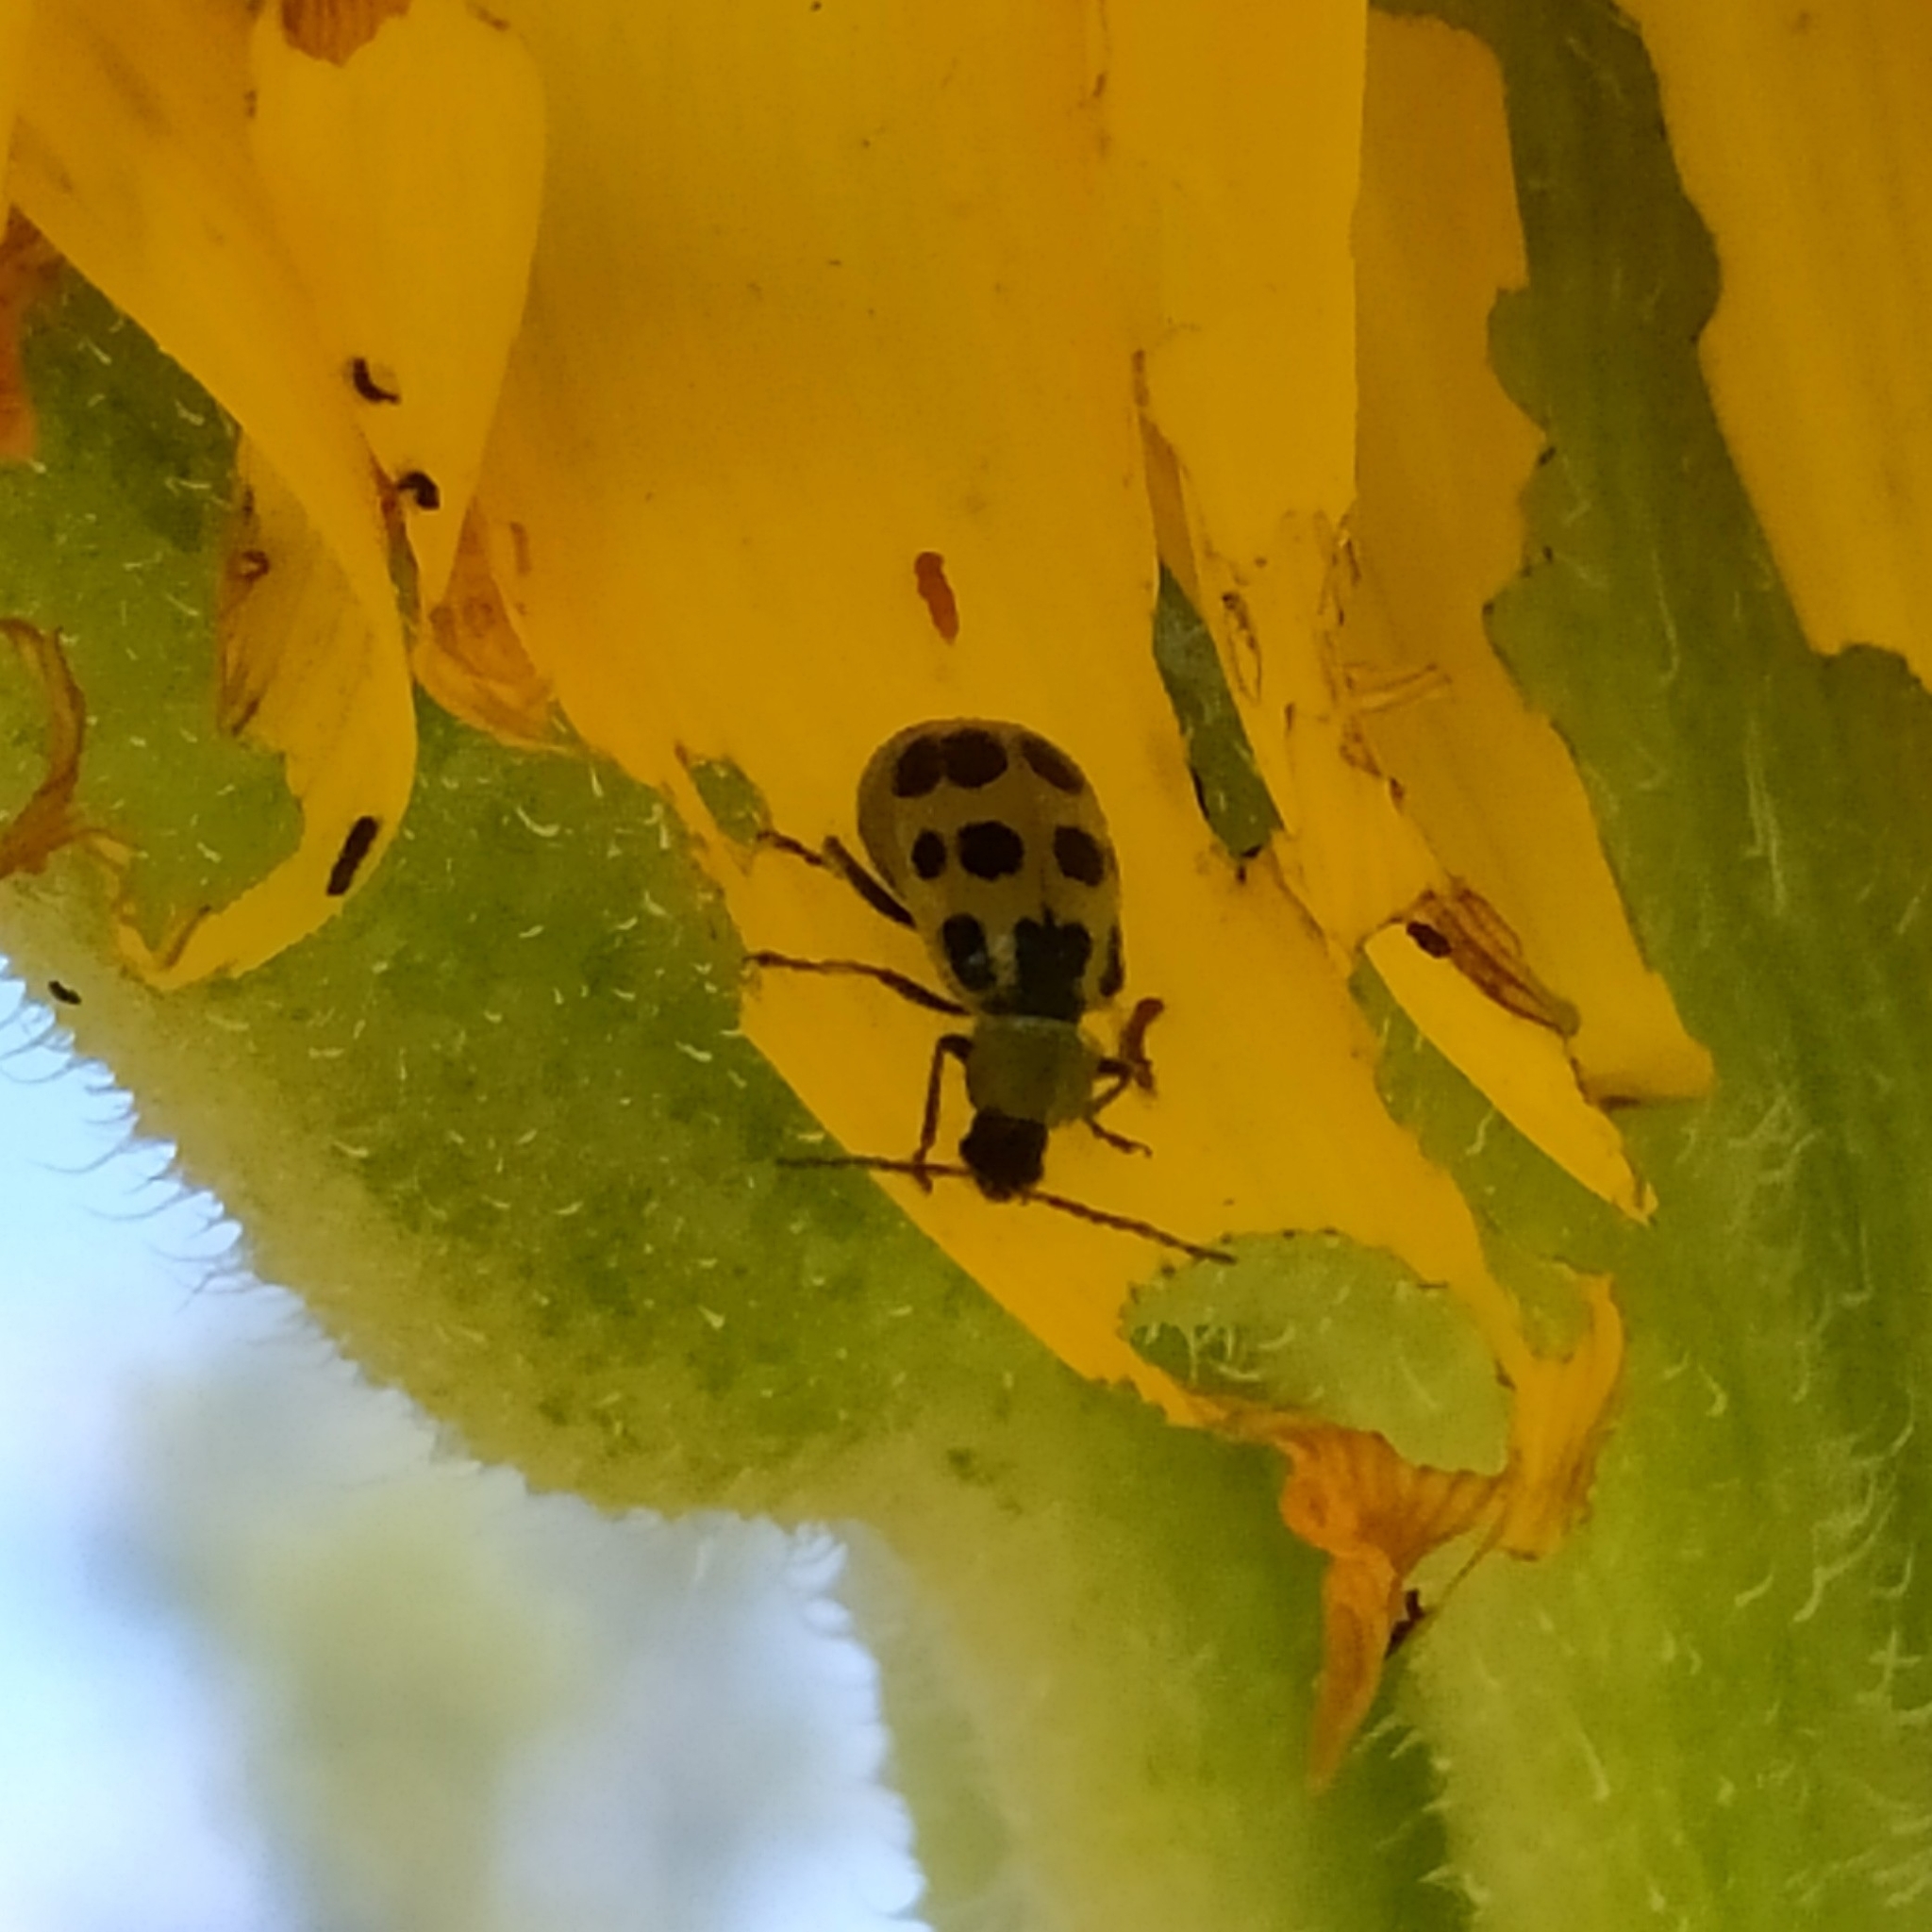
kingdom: Animalia
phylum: Arthropoda
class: Insecta
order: Coleoptera
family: Chrysomelidae
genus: Diabrotica
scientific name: Diabrotica undecimpunctata
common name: Spotted cucumber beetle
